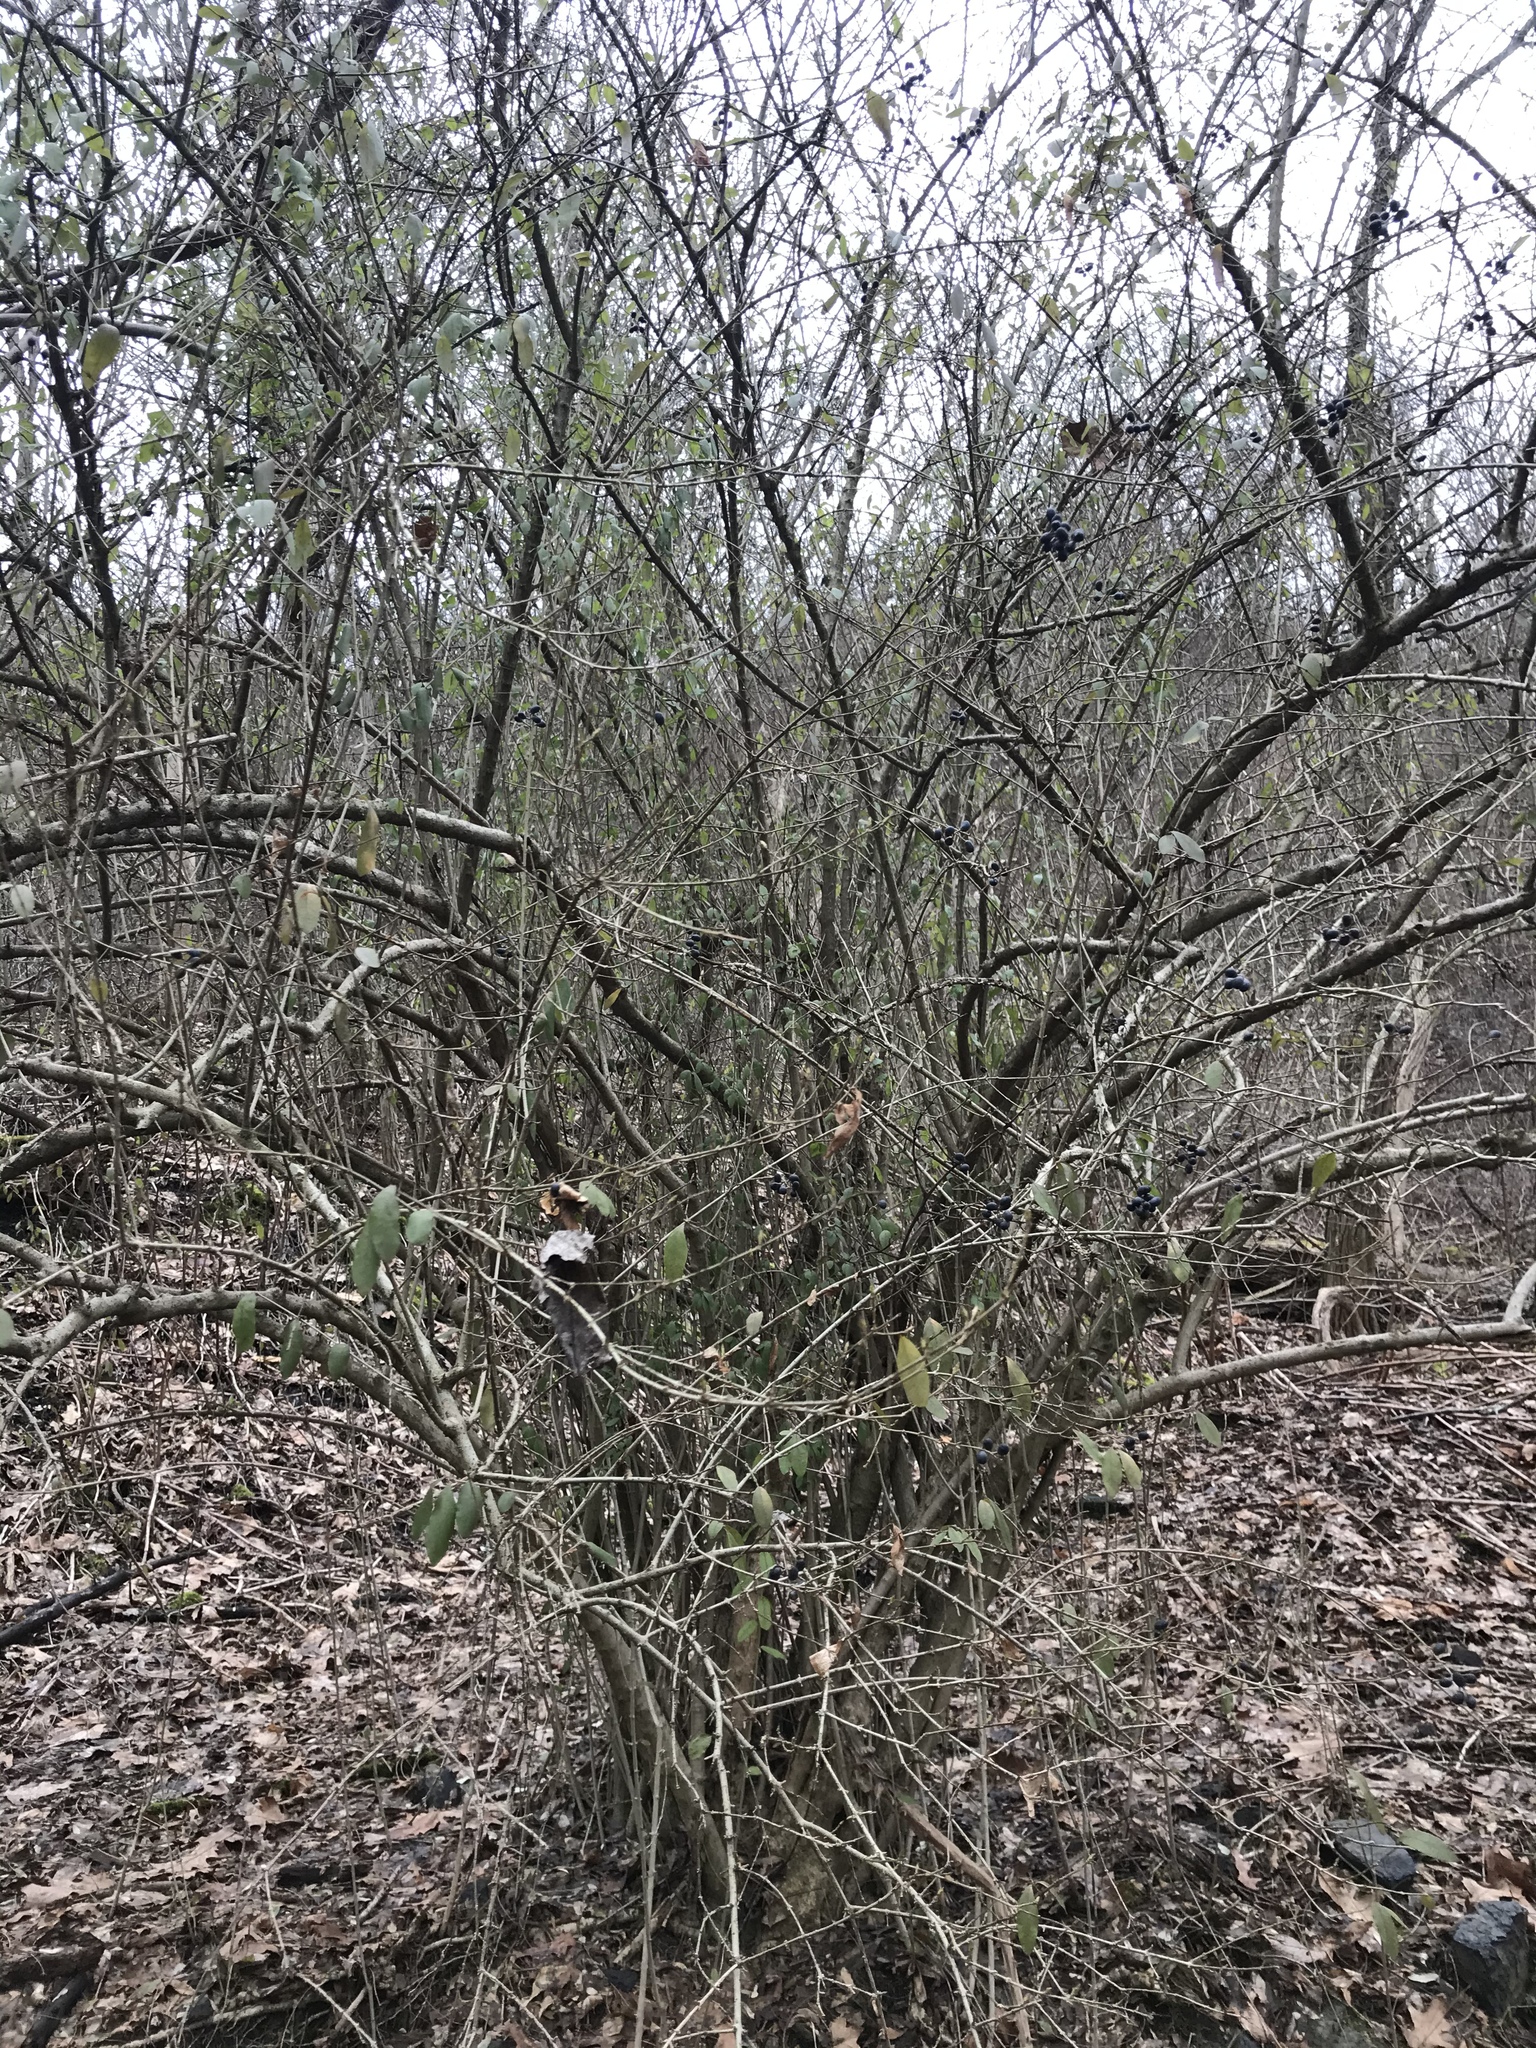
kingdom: Plantae
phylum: Tracheophyta
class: Magnoliopsida
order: Lamiales
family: Oleaceae
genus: Ligustrum
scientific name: Ligustrum obtusifolium
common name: Border privet
